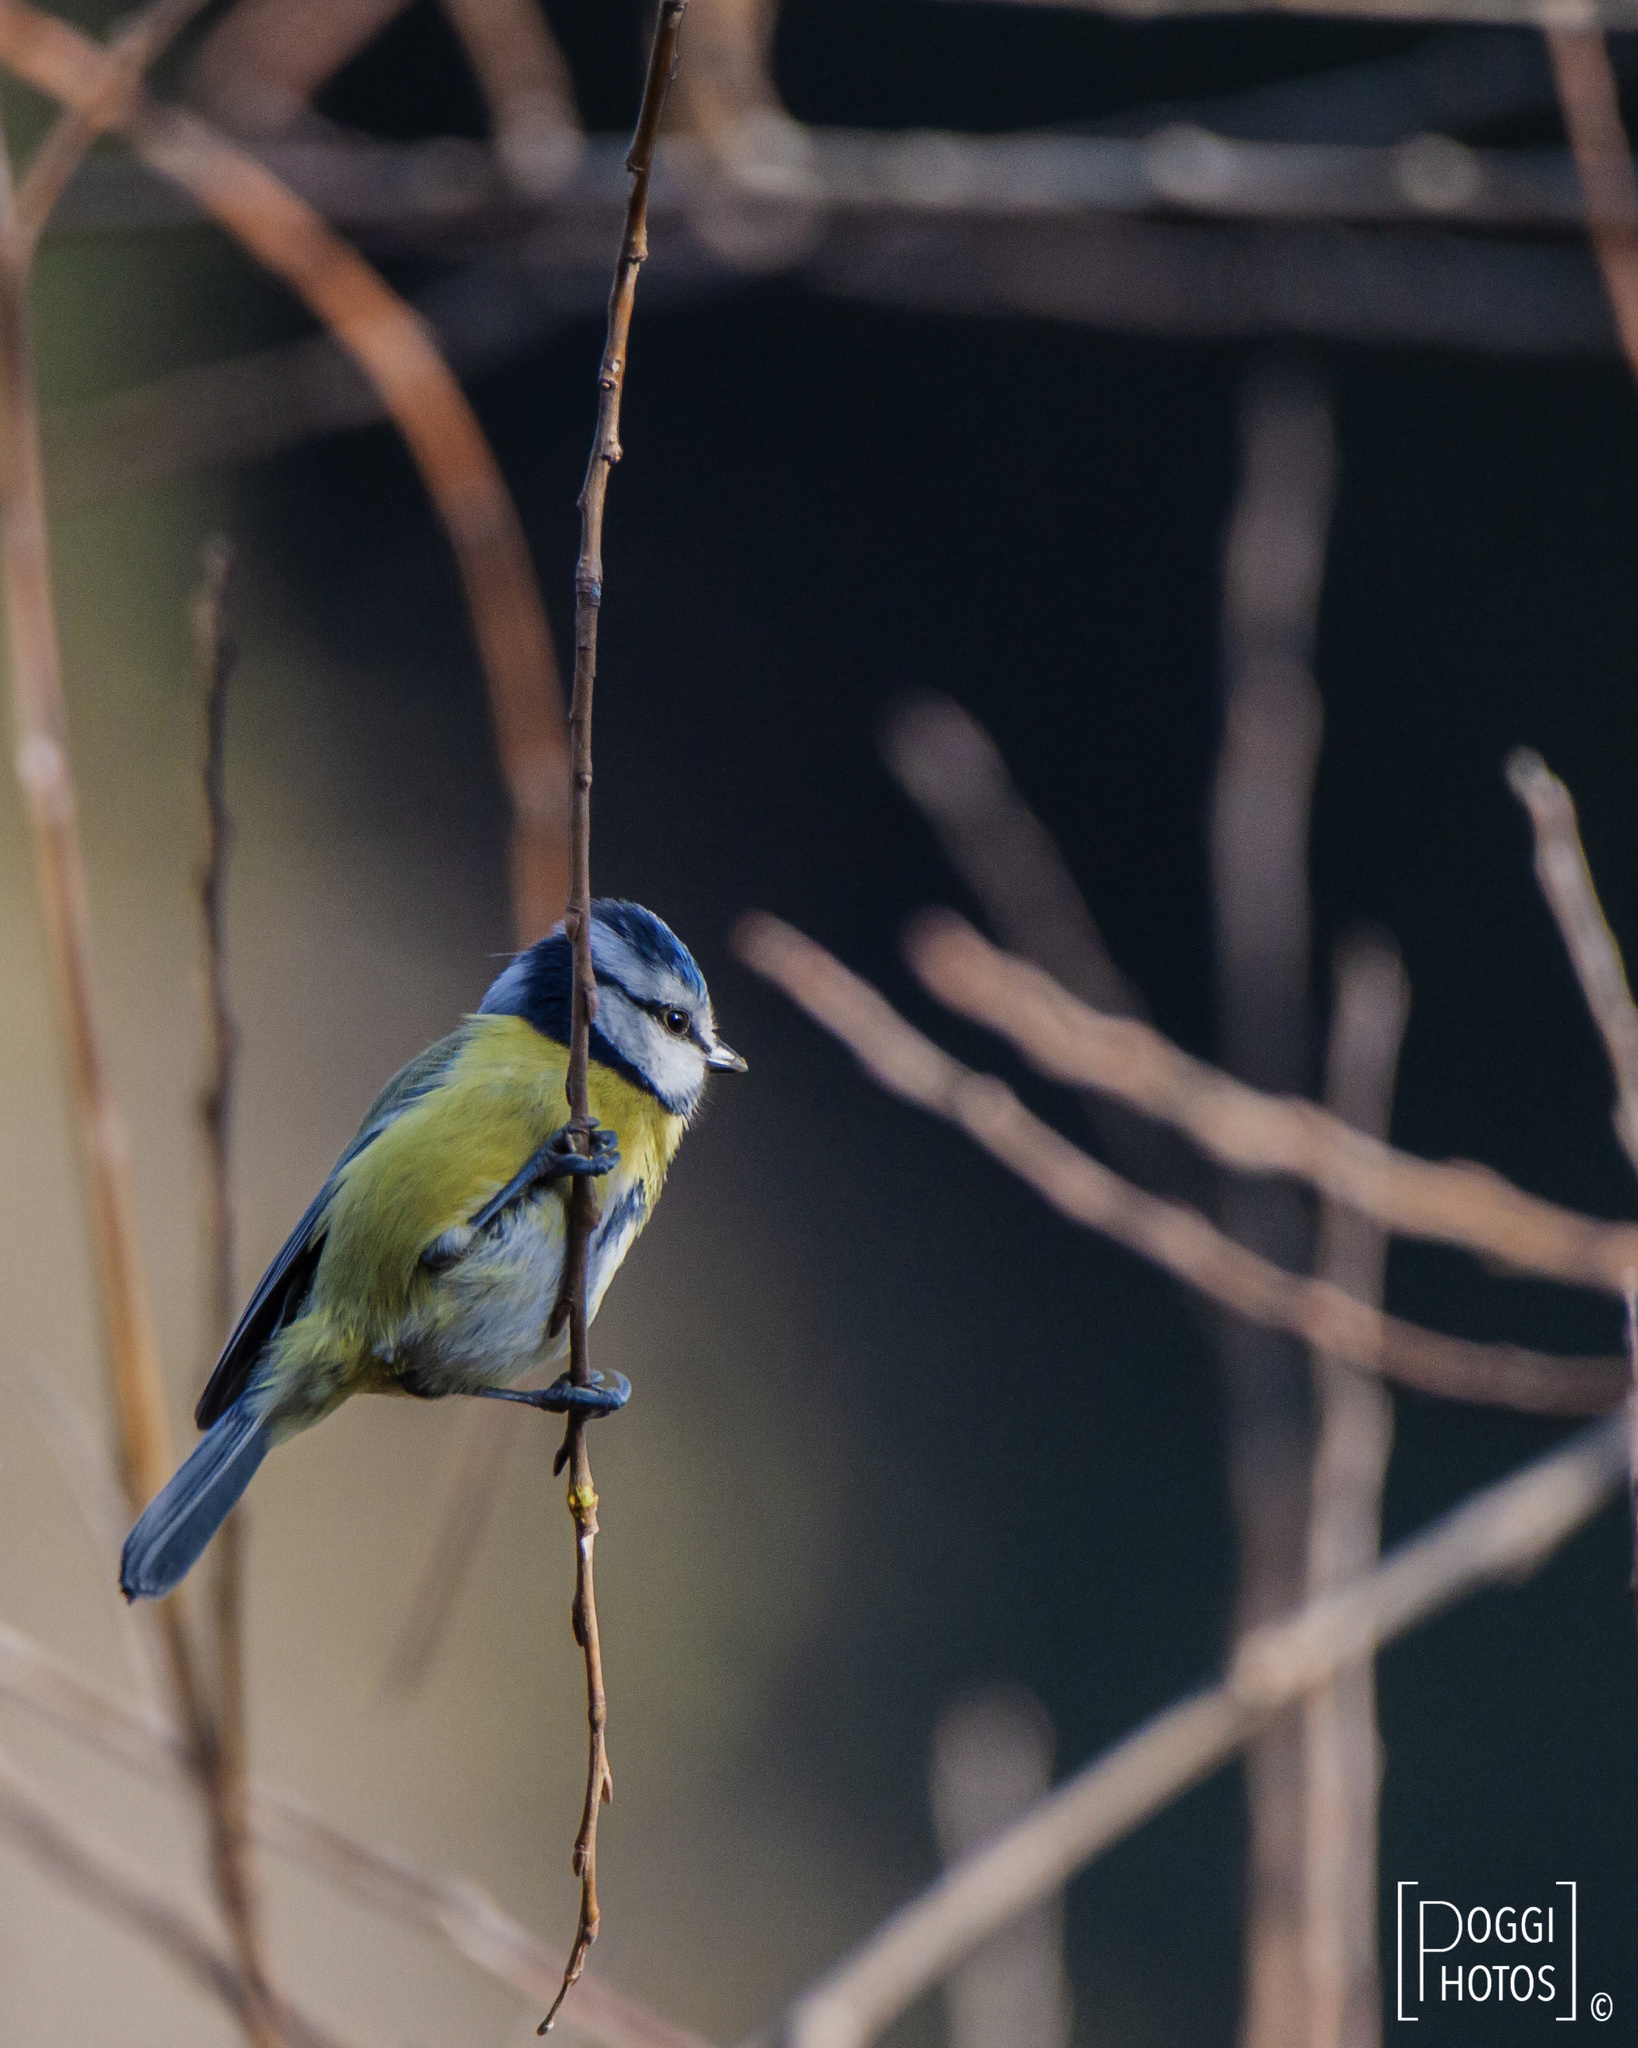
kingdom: Animalia
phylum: Chordata
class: Aves
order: Passeriformes
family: Paridae
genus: Cyanistes
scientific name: Cyanistes caeruleus
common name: Eurasian blue tit
